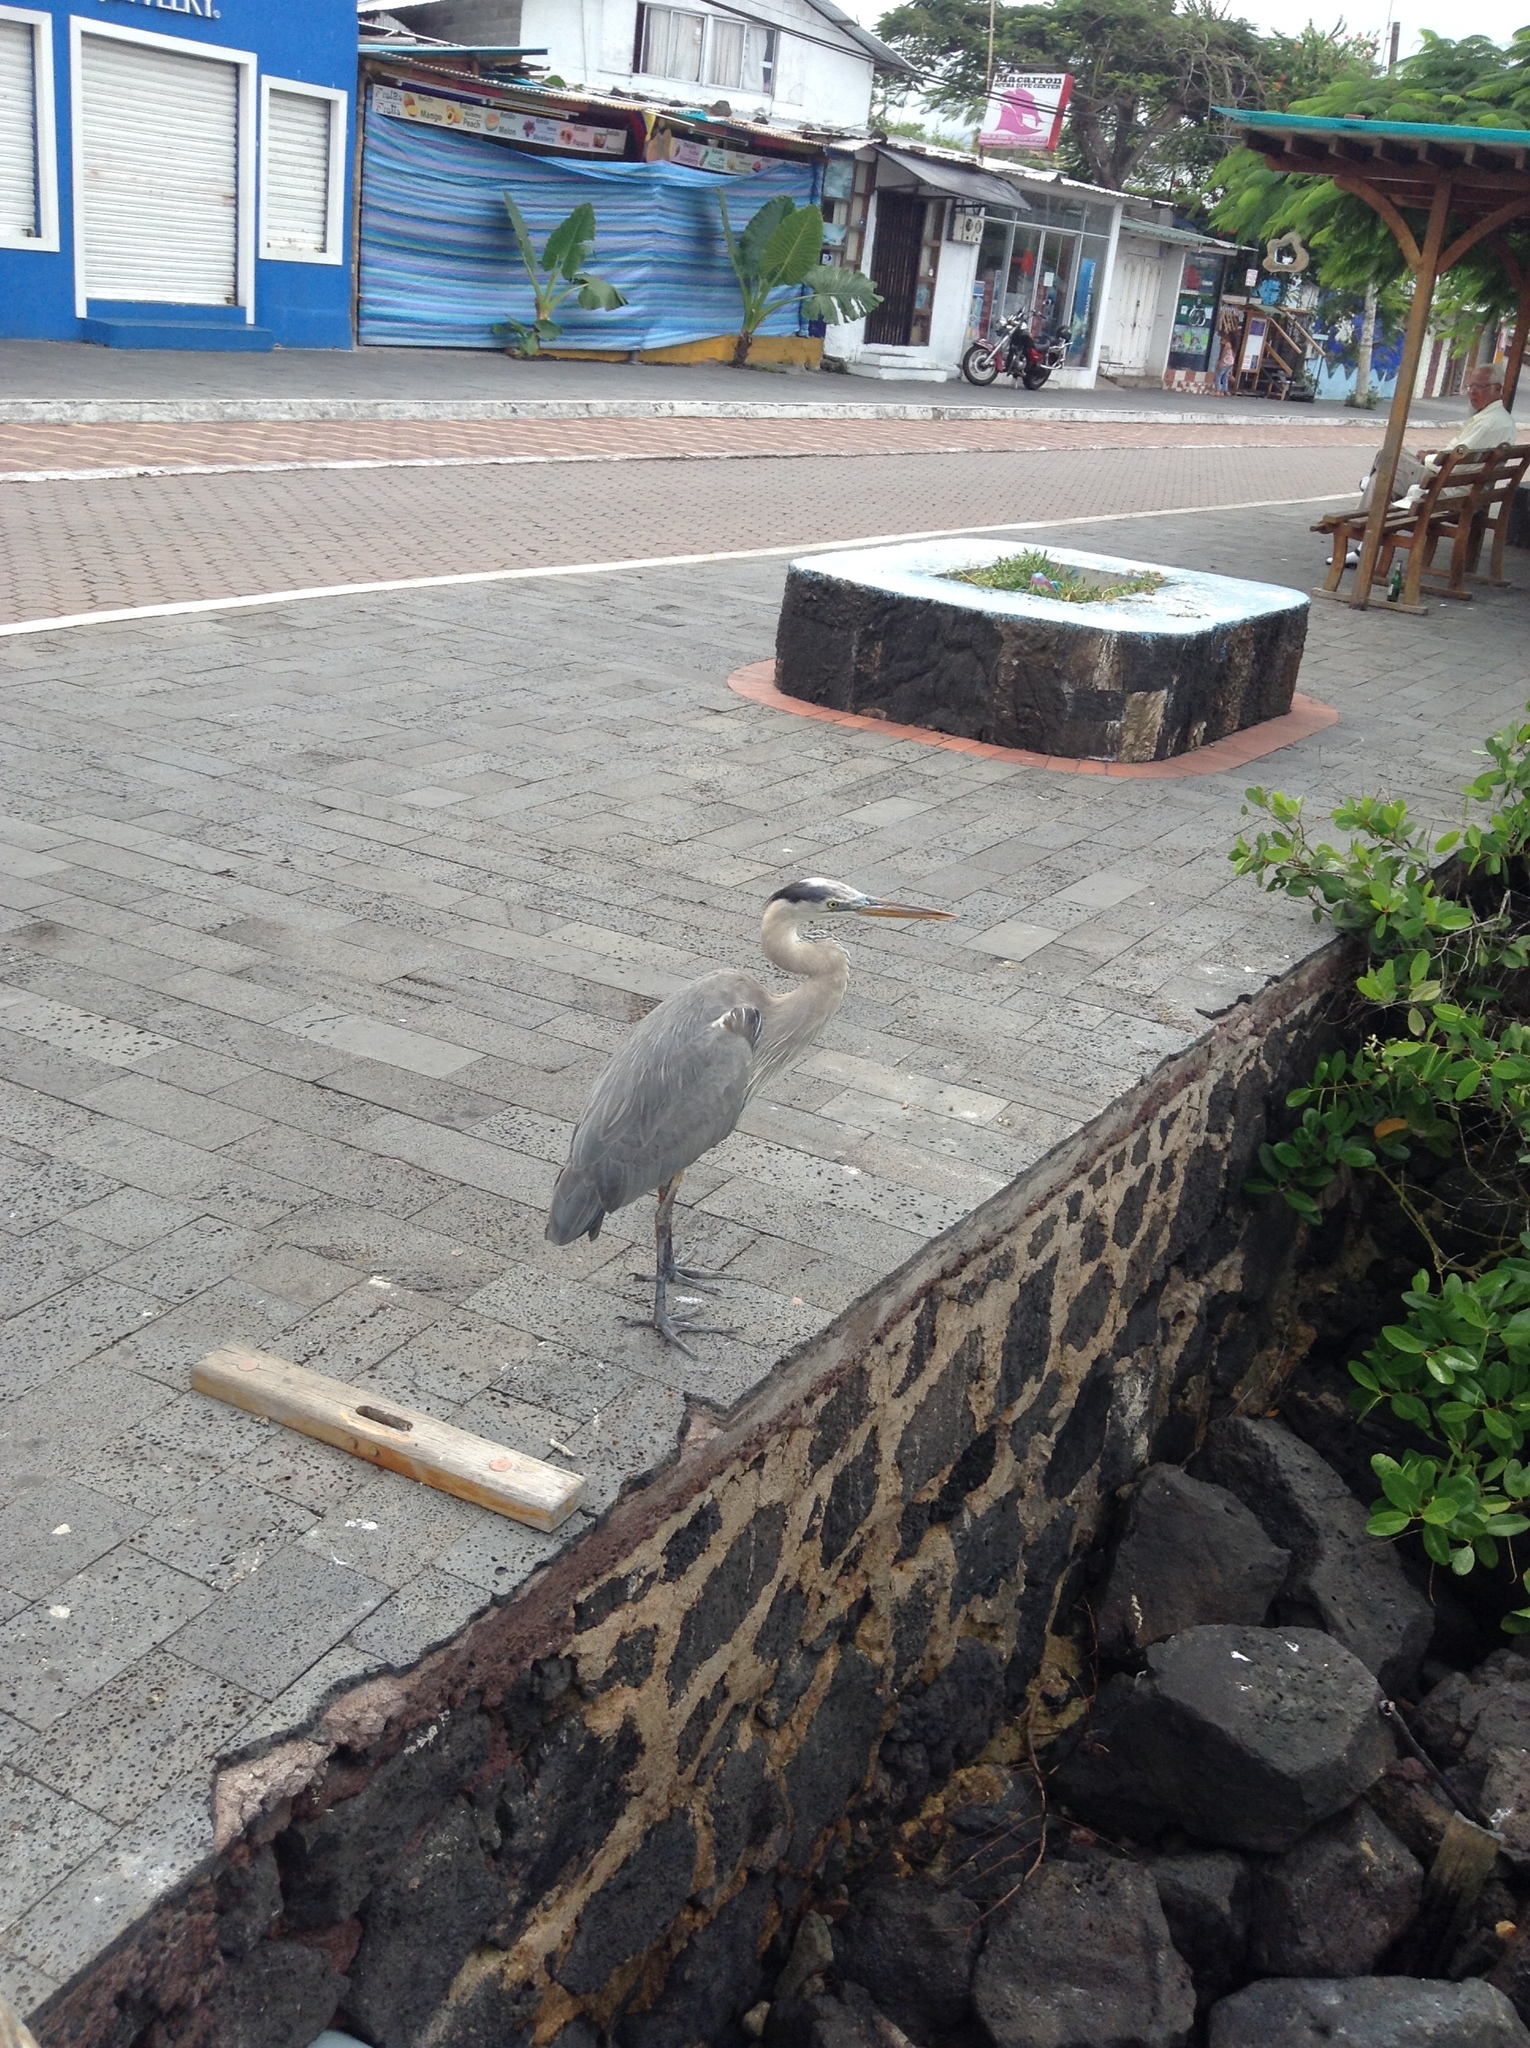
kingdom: Animalia
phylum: Chordata
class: Aves
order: Pelecaniformes
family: Ardeidae
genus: Ardea
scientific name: Ardea herodias
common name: Great blue heron
